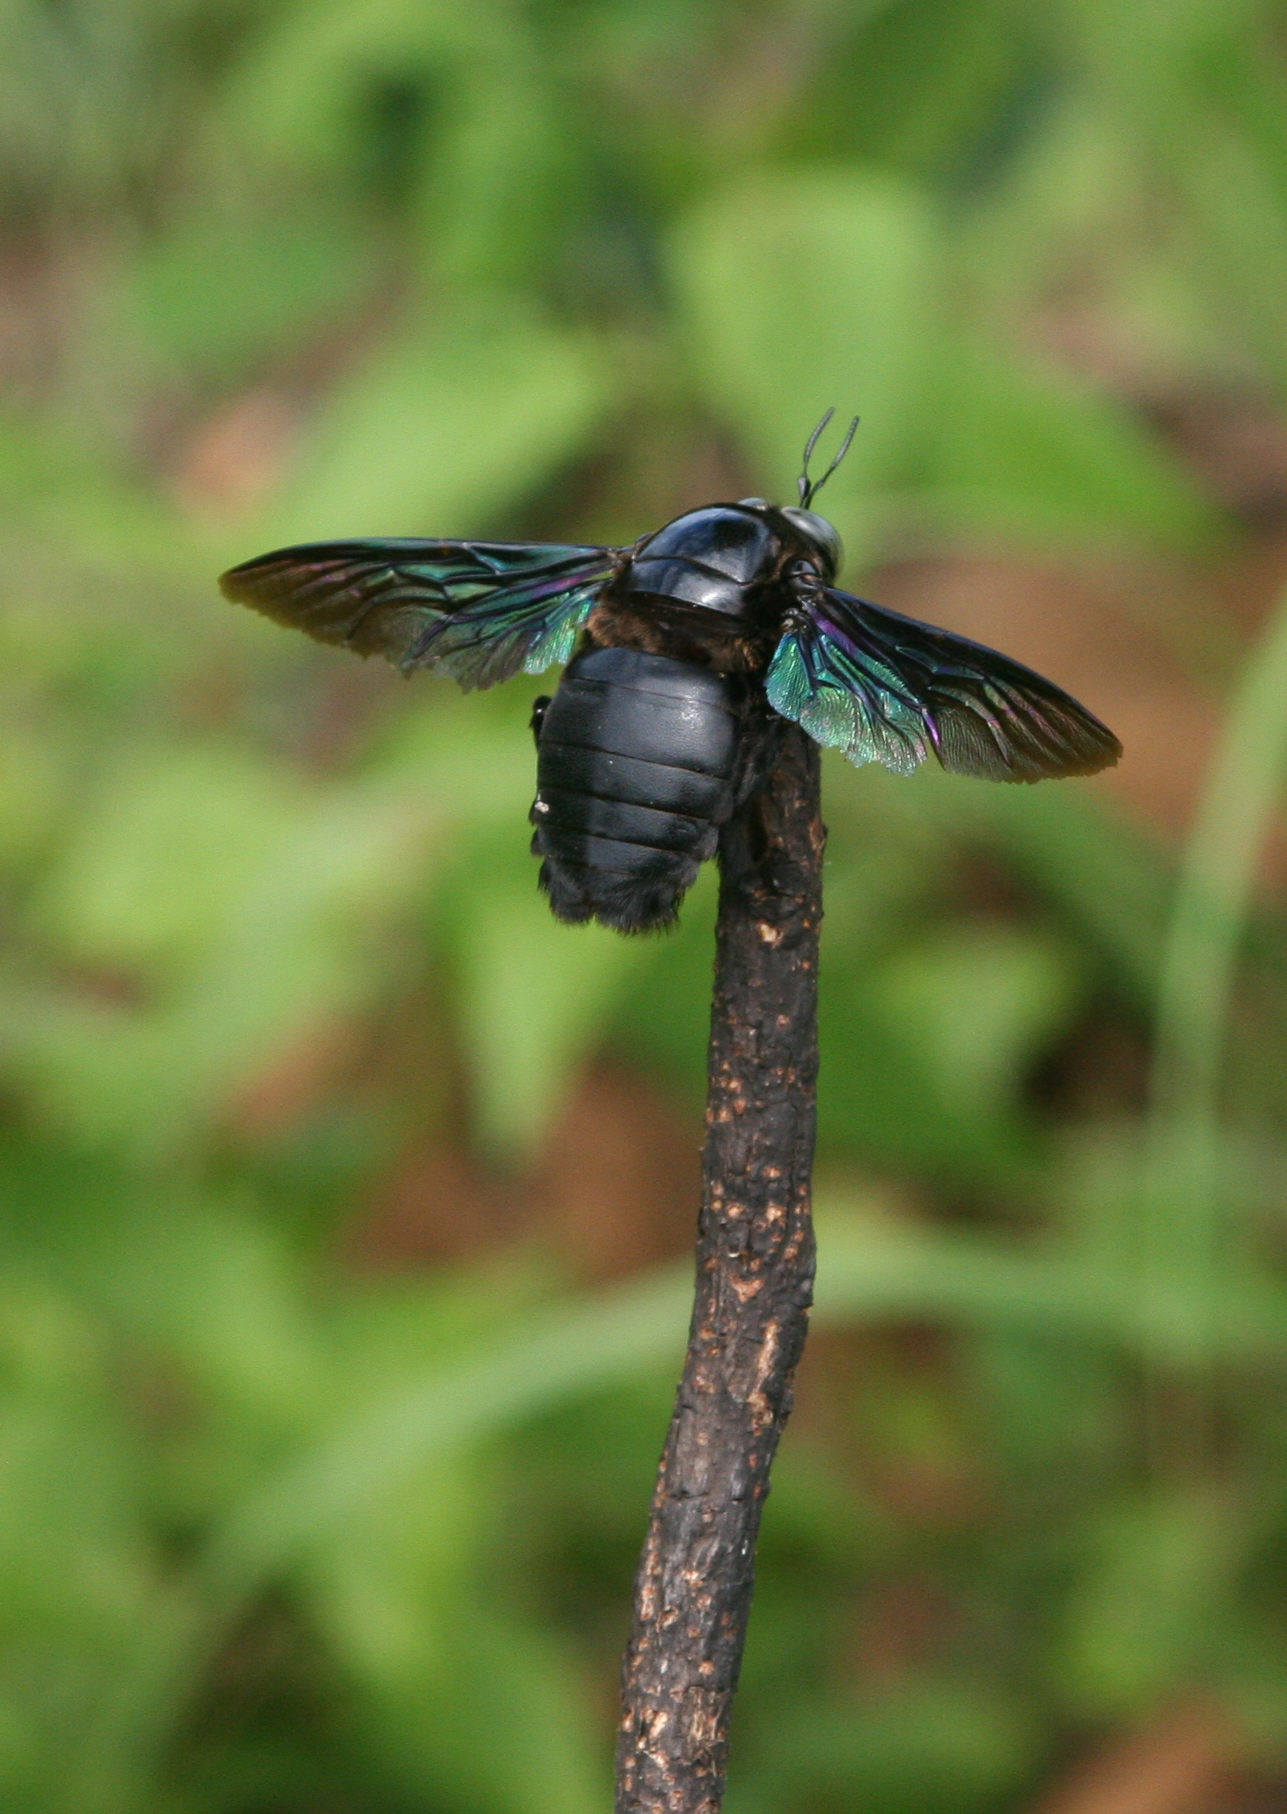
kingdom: Animalia
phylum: Arthropoda
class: Insecta
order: Hymenoptera
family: Apidae
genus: Xylocopa
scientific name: Xylocopa latipes
